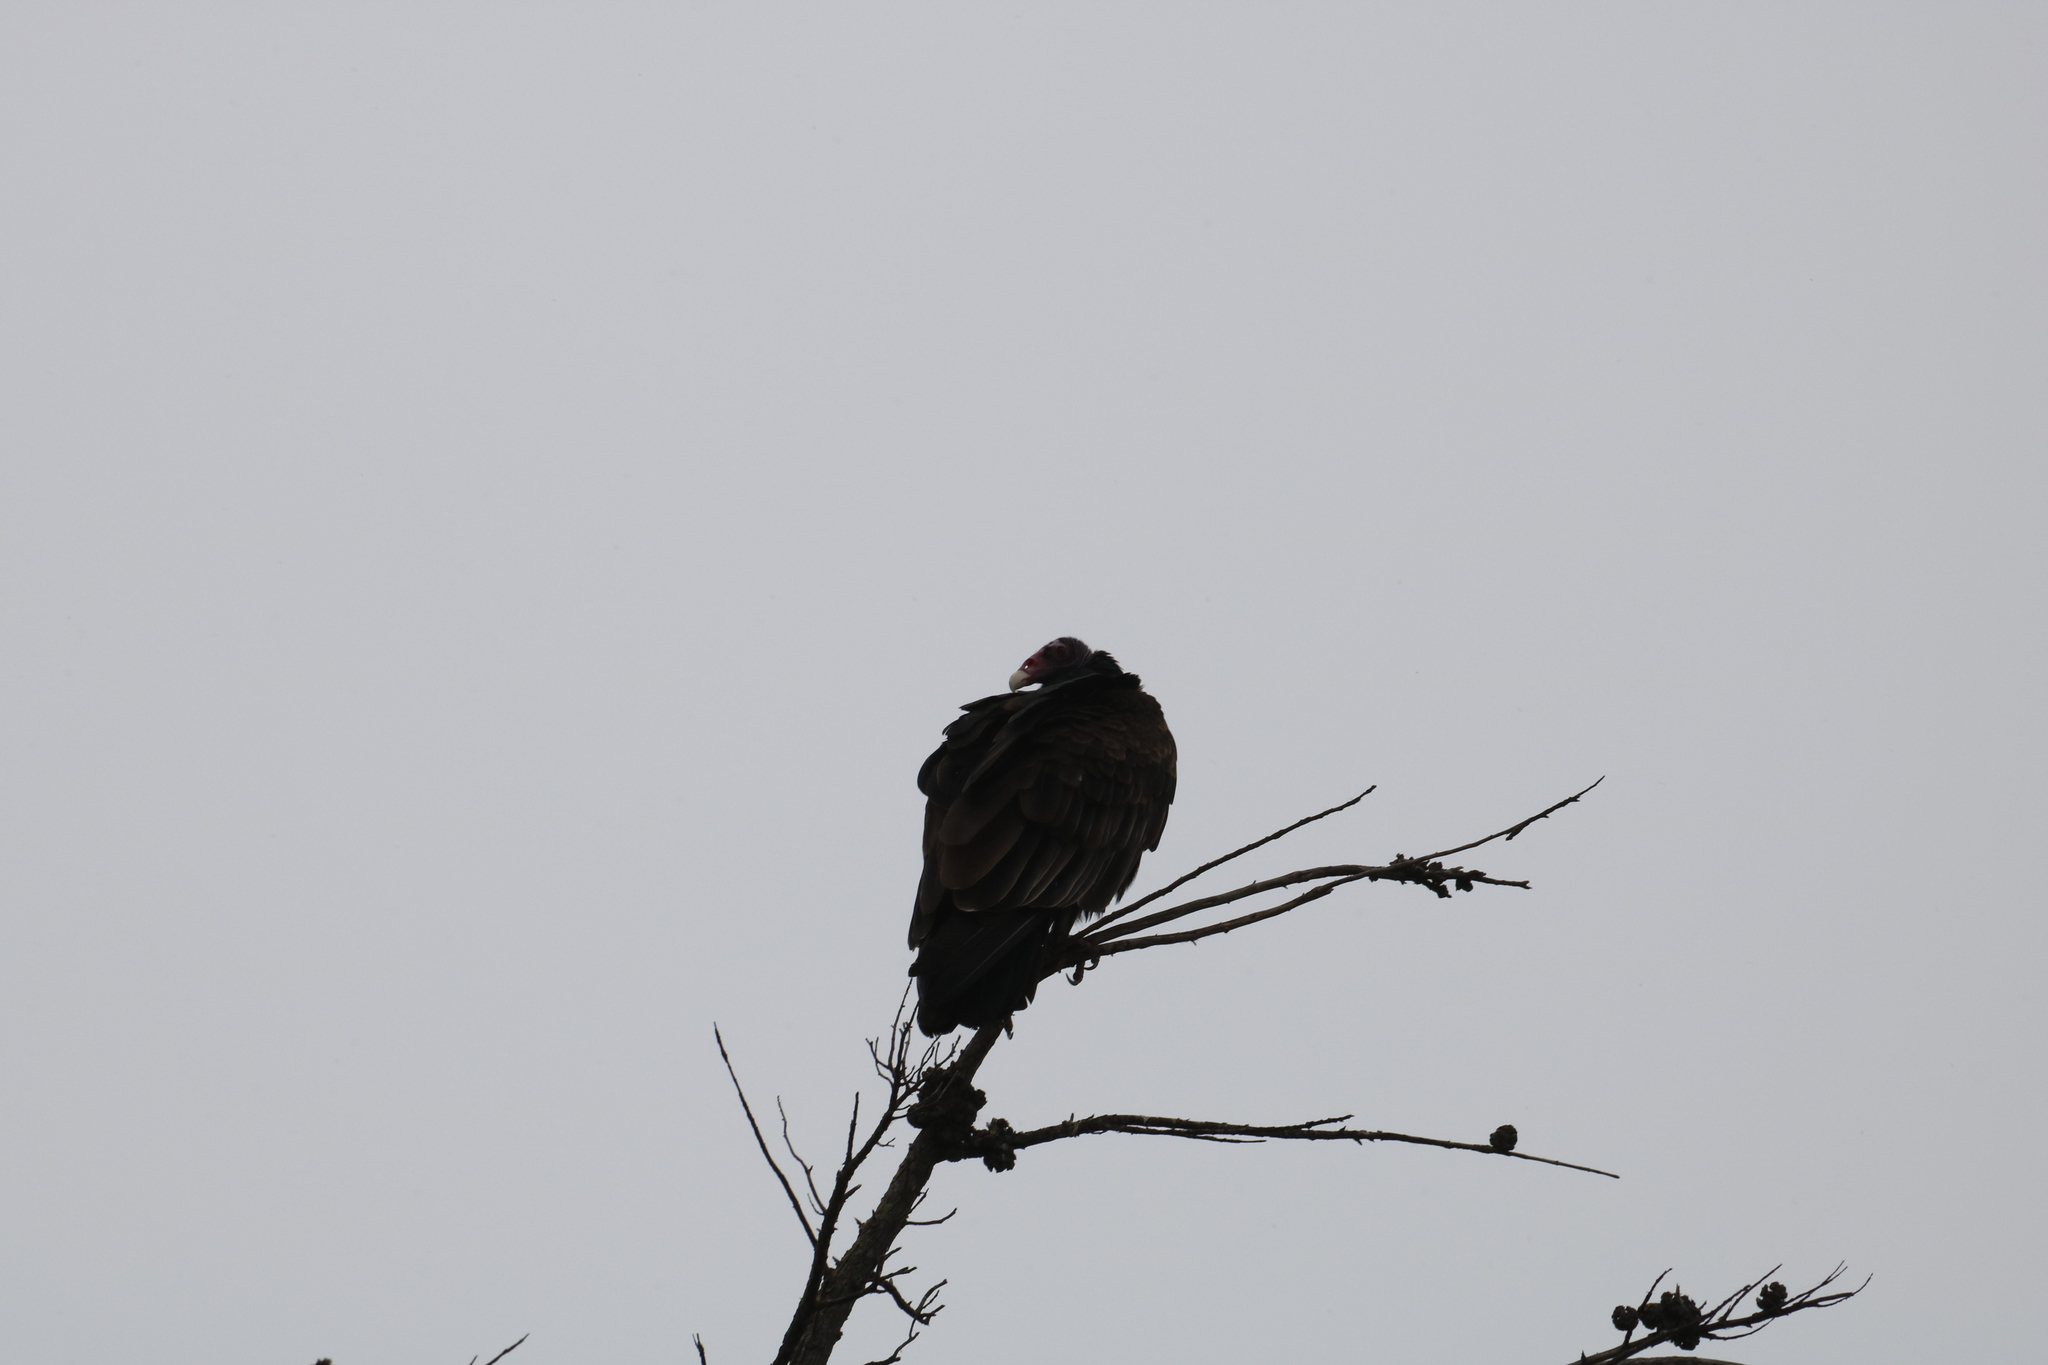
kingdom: Animalia
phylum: Chordata
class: Aves
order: Accipitriformes
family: Cathartidae
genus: Cathartes
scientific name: Cathartes aura
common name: Turkey vulture
